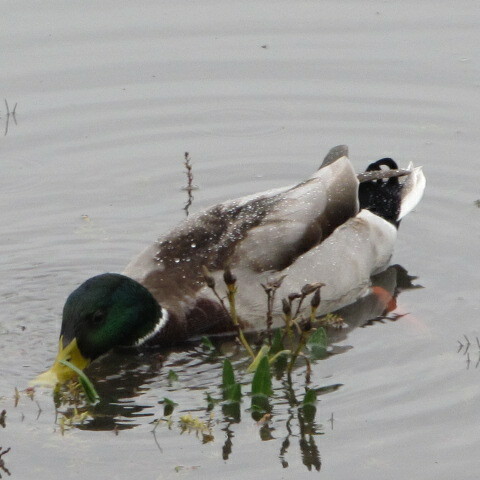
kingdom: Animalia
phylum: Chordata
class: Aves
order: Anseriformes
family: Anatidae
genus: Anas
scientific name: Anas platyrhynchos
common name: Mallard
